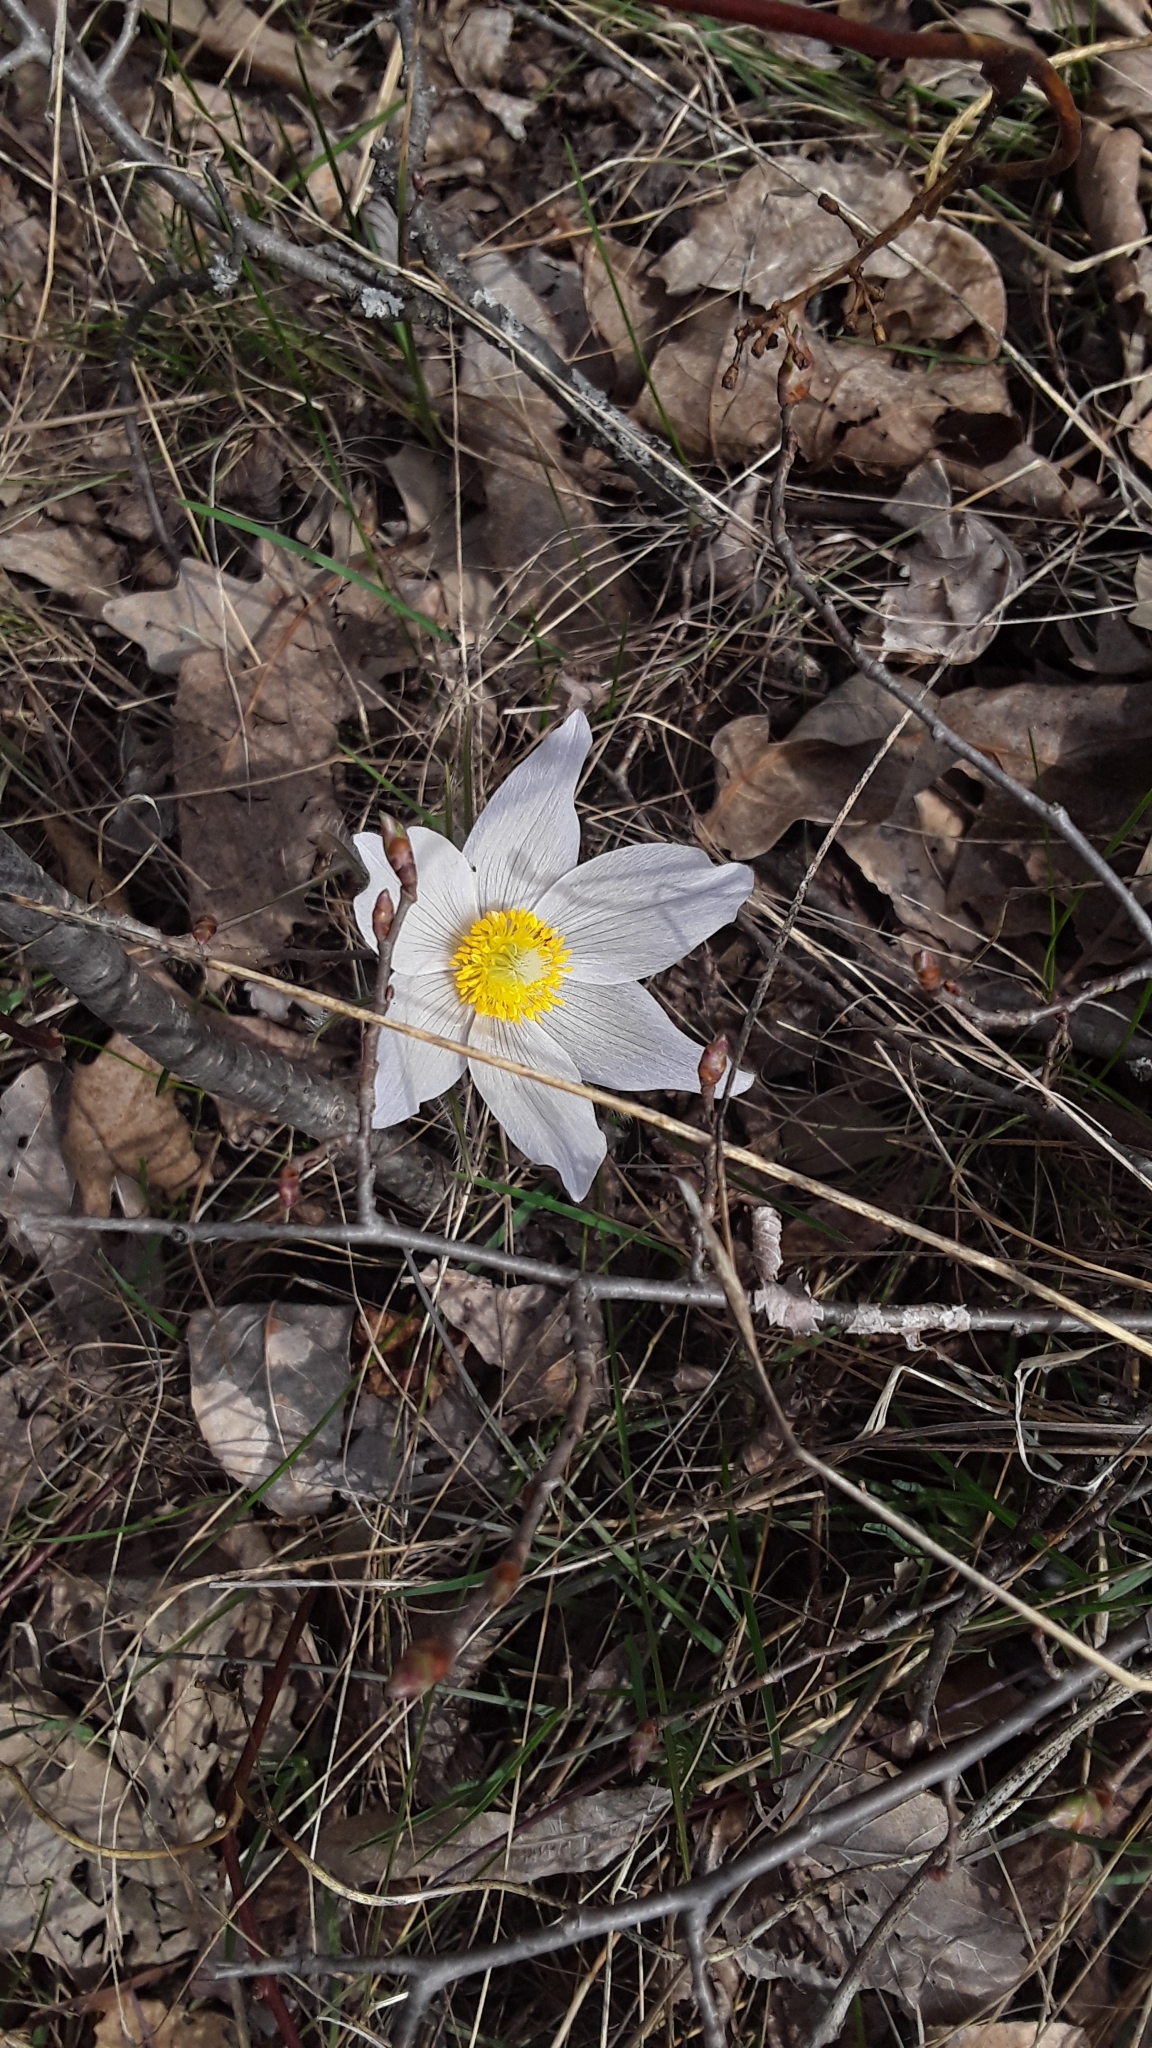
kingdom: Plantae
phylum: Tracheophyta
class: Magnoliopsida
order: Ranunculales
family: Ranunculaceae
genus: Pulsatilla
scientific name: Pulsatilla nuttalliana
